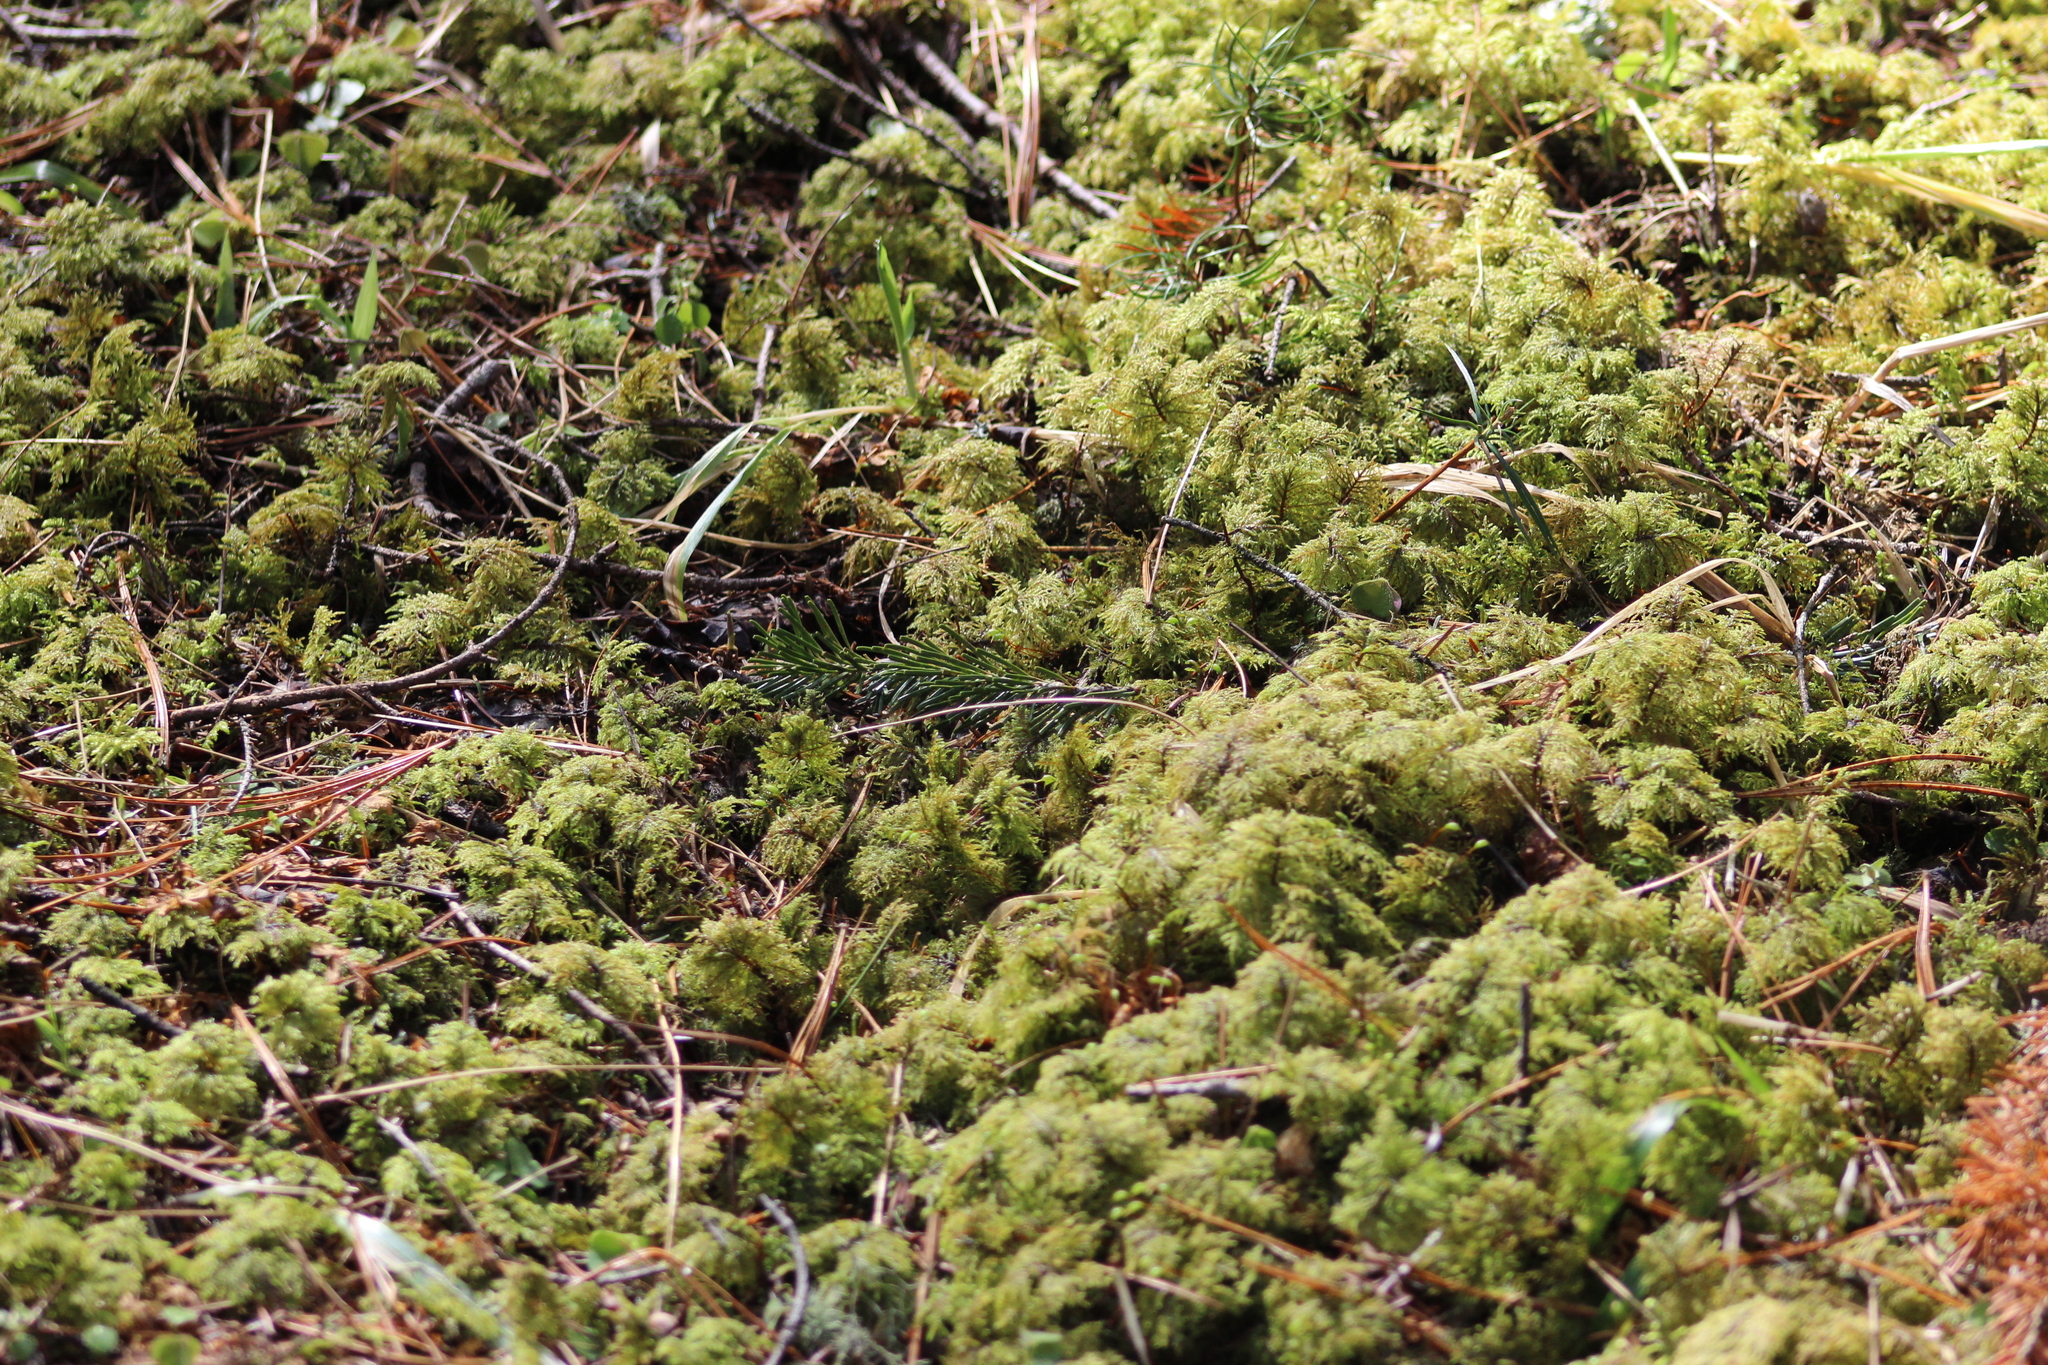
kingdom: Plantae
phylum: Bryophyta
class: Bryopsida
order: Hypnales
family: Hylocomiaceae
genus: Hylocomium
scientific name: Hylocomium splendens
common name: Stairstep moss
